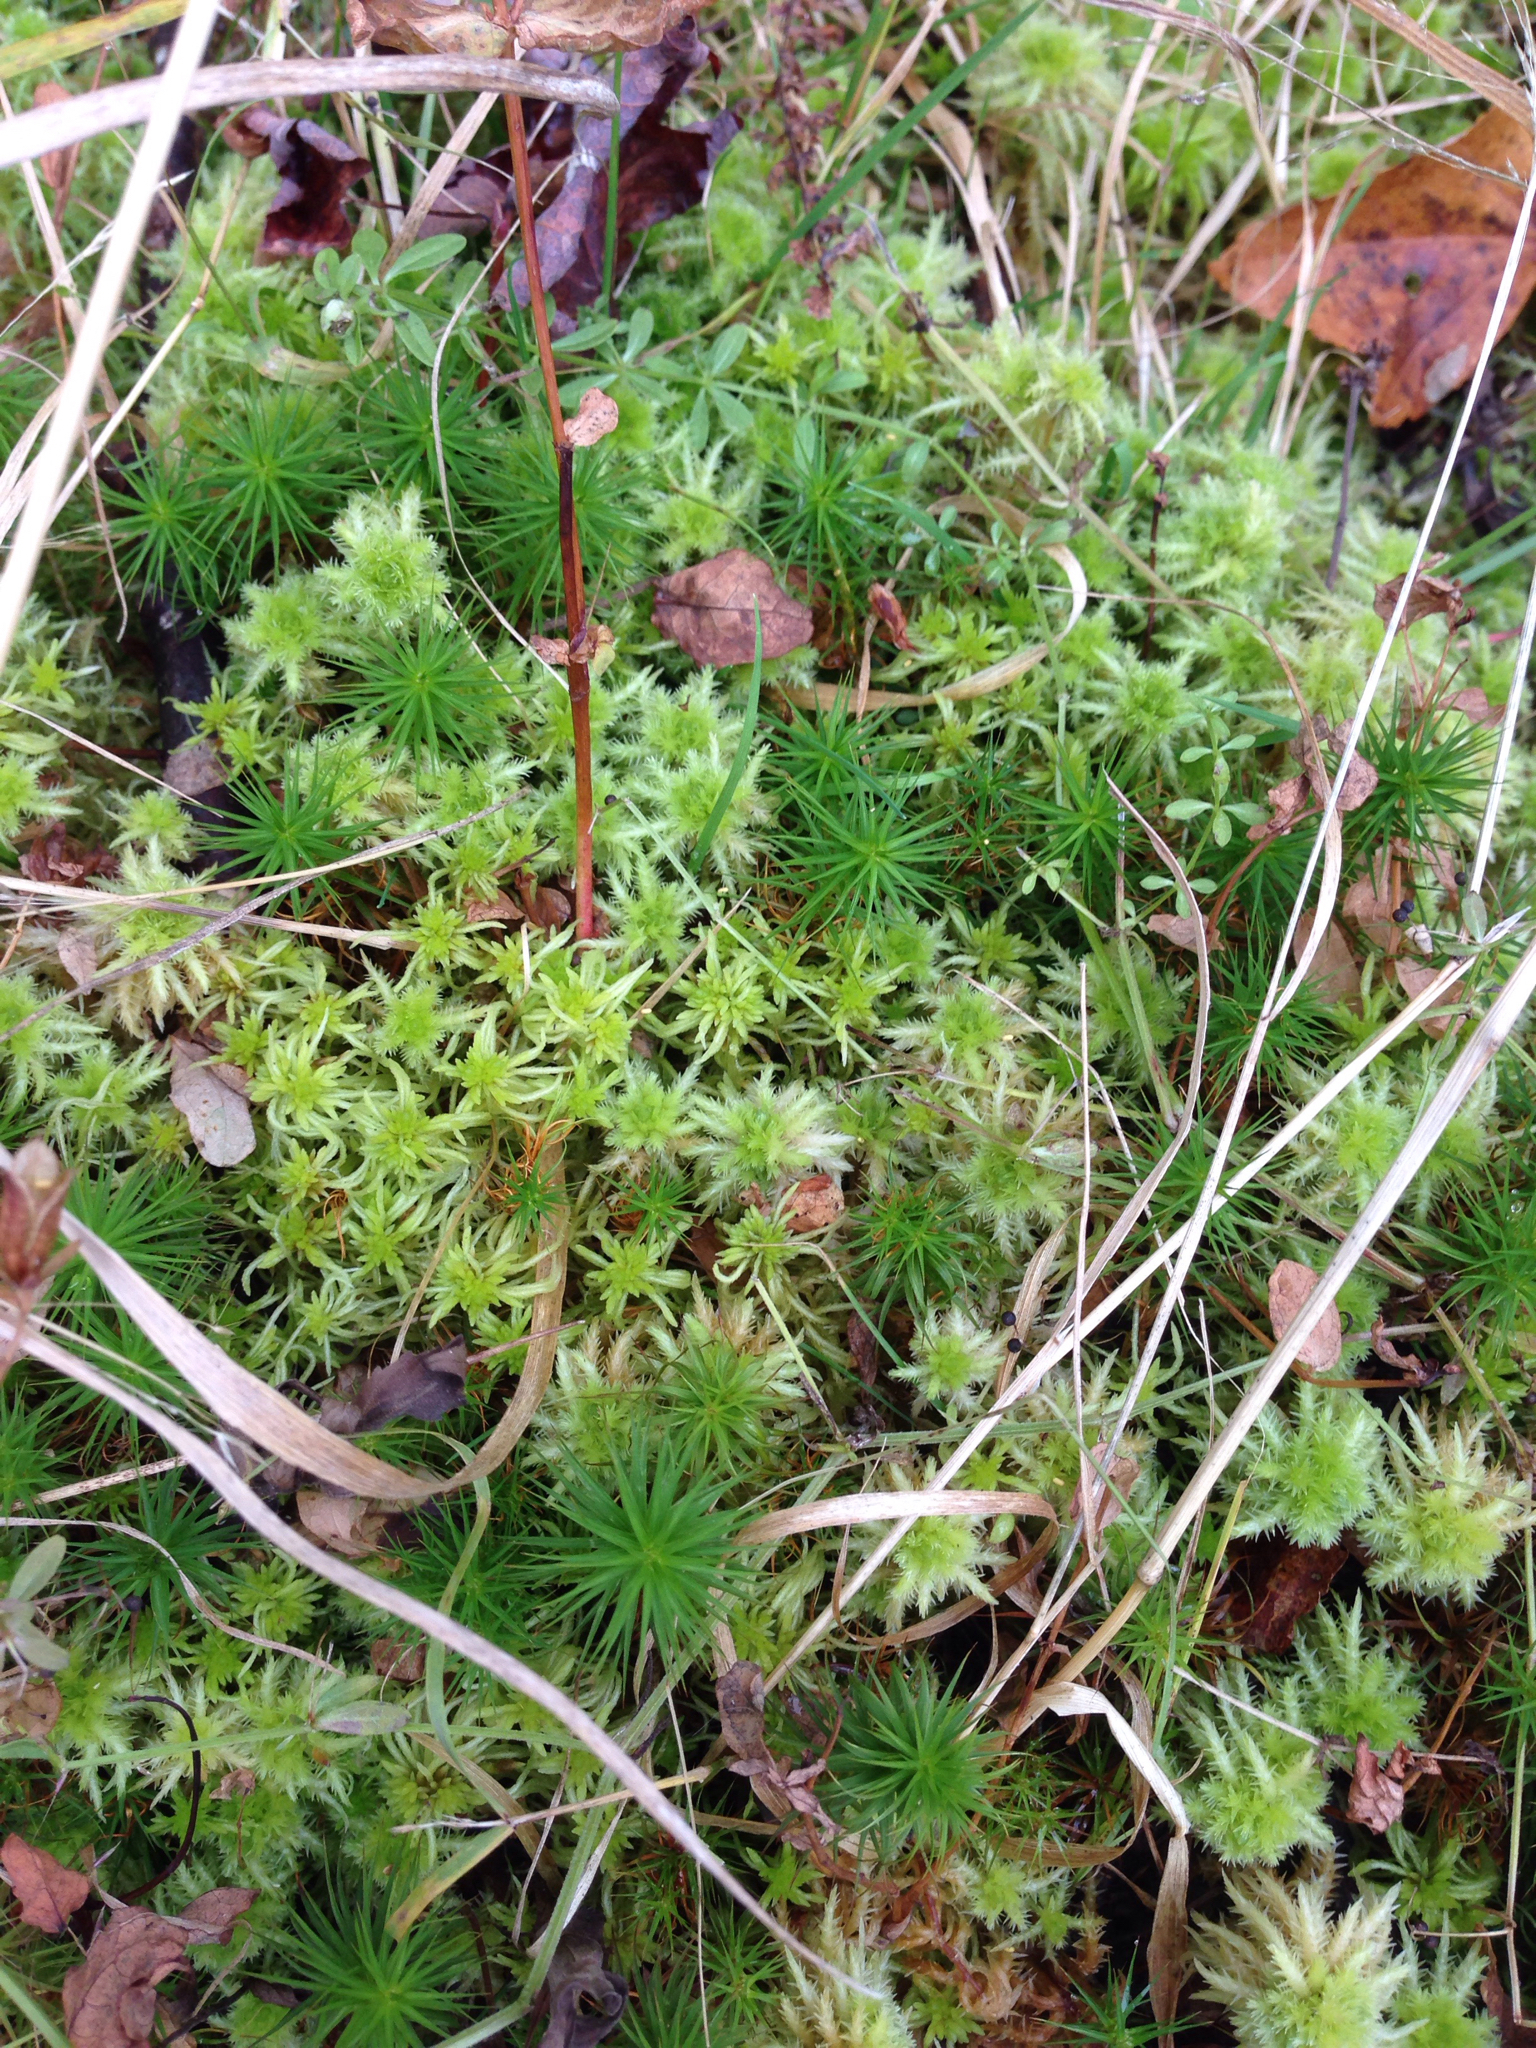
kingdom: Plantae
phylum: Bryophyta
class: Sphagnopsida
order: Sphagnales
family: Sphagnaceae
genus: Sphagnum
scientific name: Sphagnum squarrosum
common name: Shaggy peat moss
